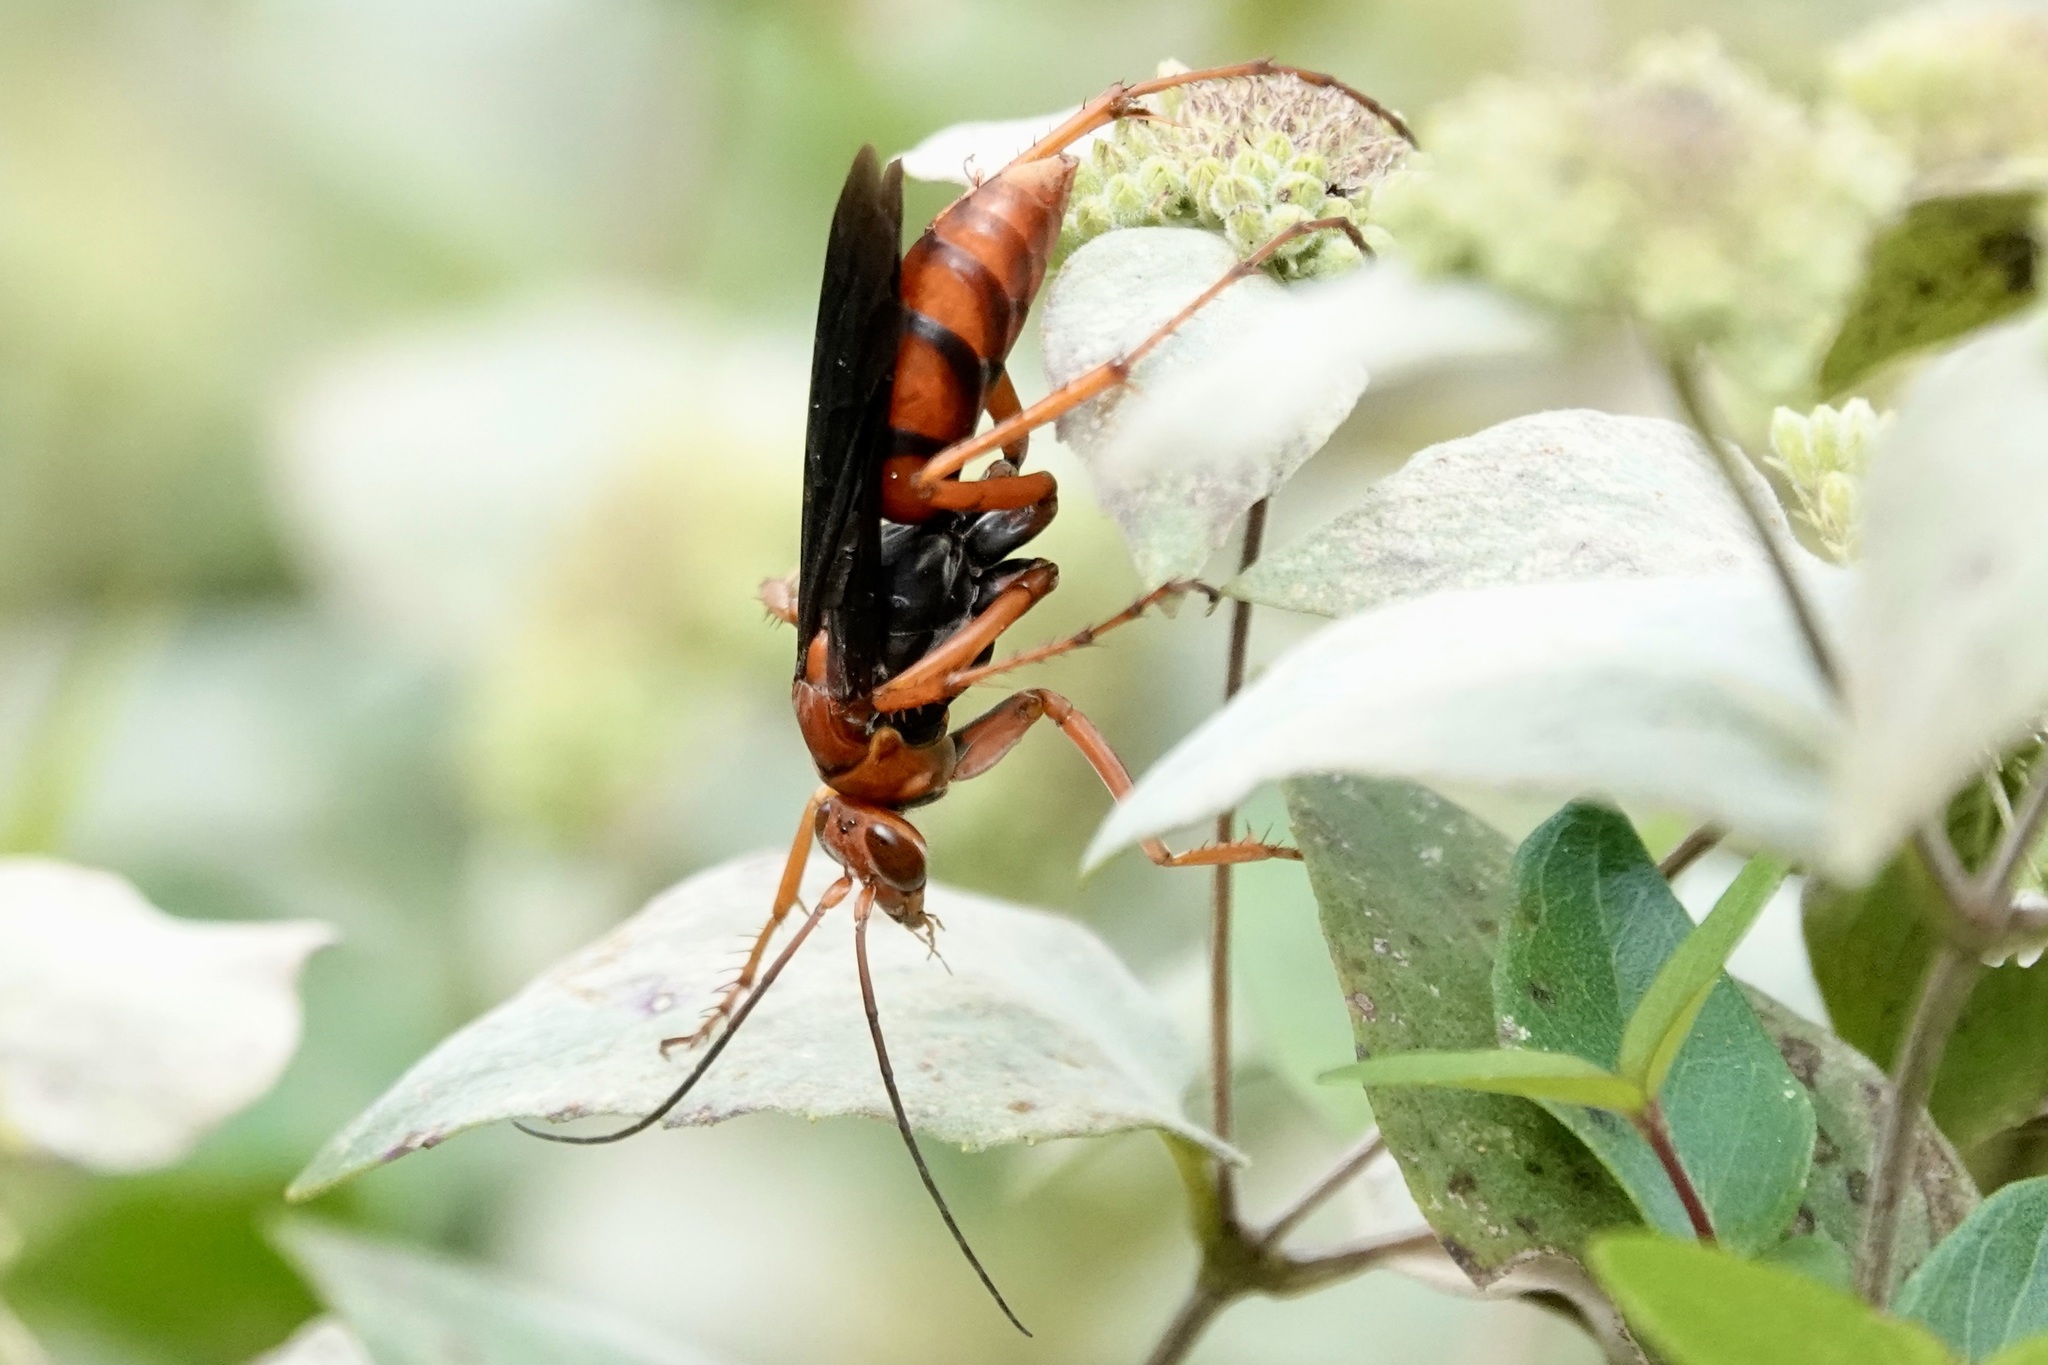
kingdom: Animalia
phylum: Arthropoda
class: Insecta
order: Hymenoptera
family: Pompilidae
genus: Tachypompilus
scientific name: Tachypompilus ferrugineus
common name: Rusty spider wasp
